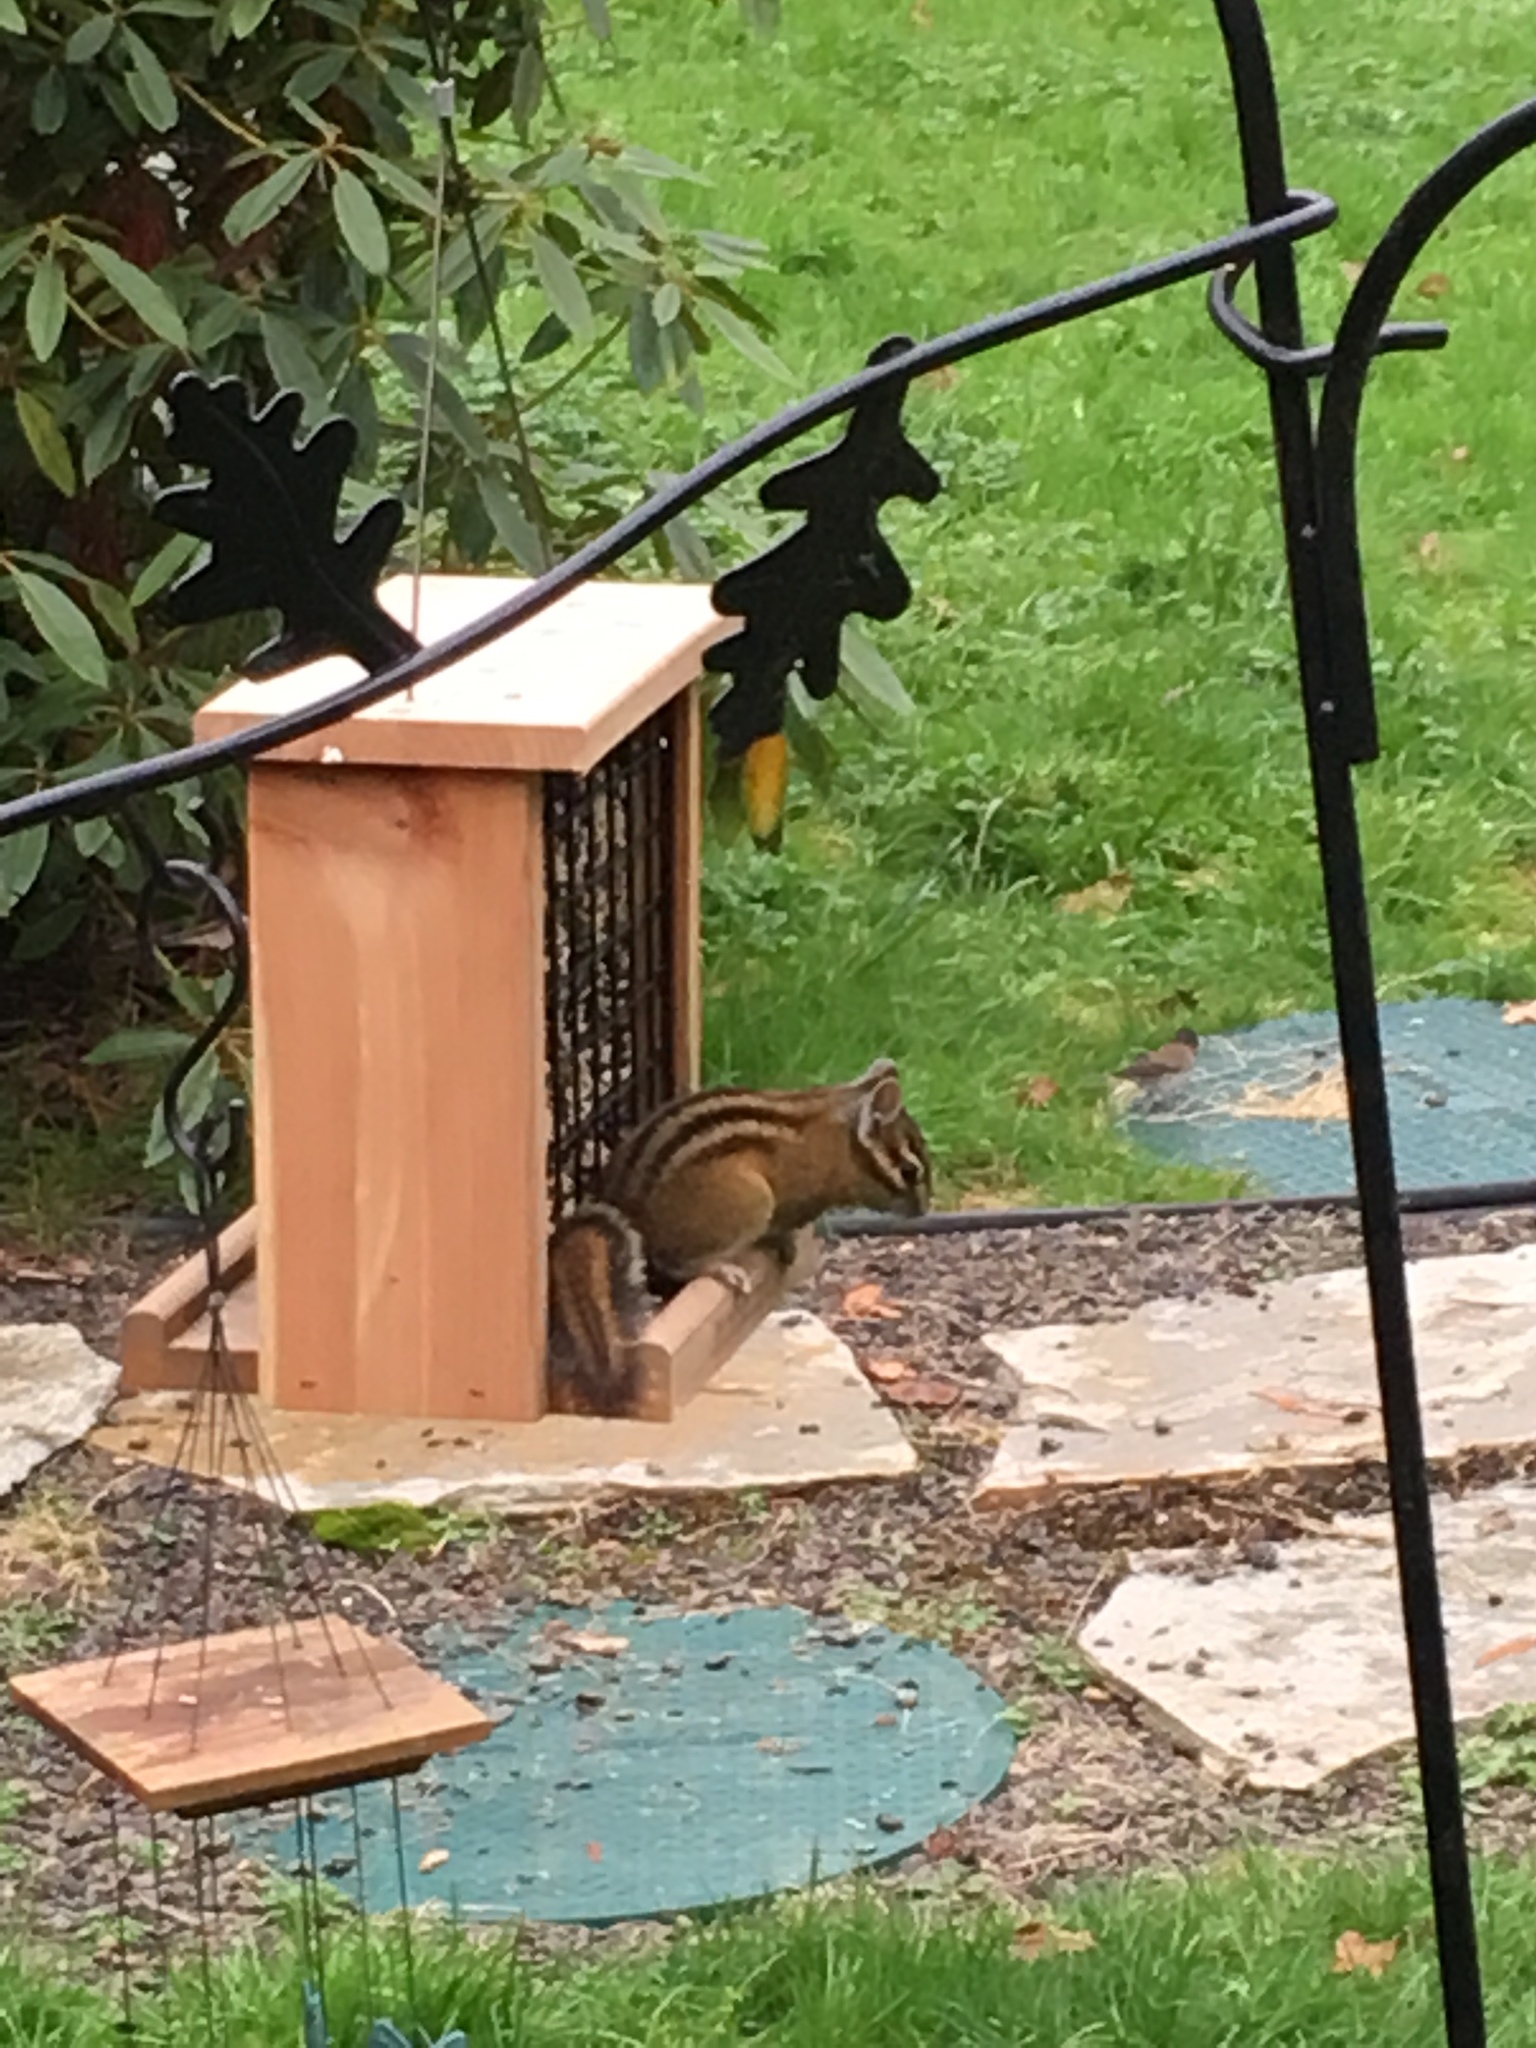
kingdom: Animalia
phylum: Chordata
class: Mammalia
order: Rodentia
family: Sciuridae
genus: Tamias
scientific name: Tamias townsendii
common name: Townsend's chipmunk
